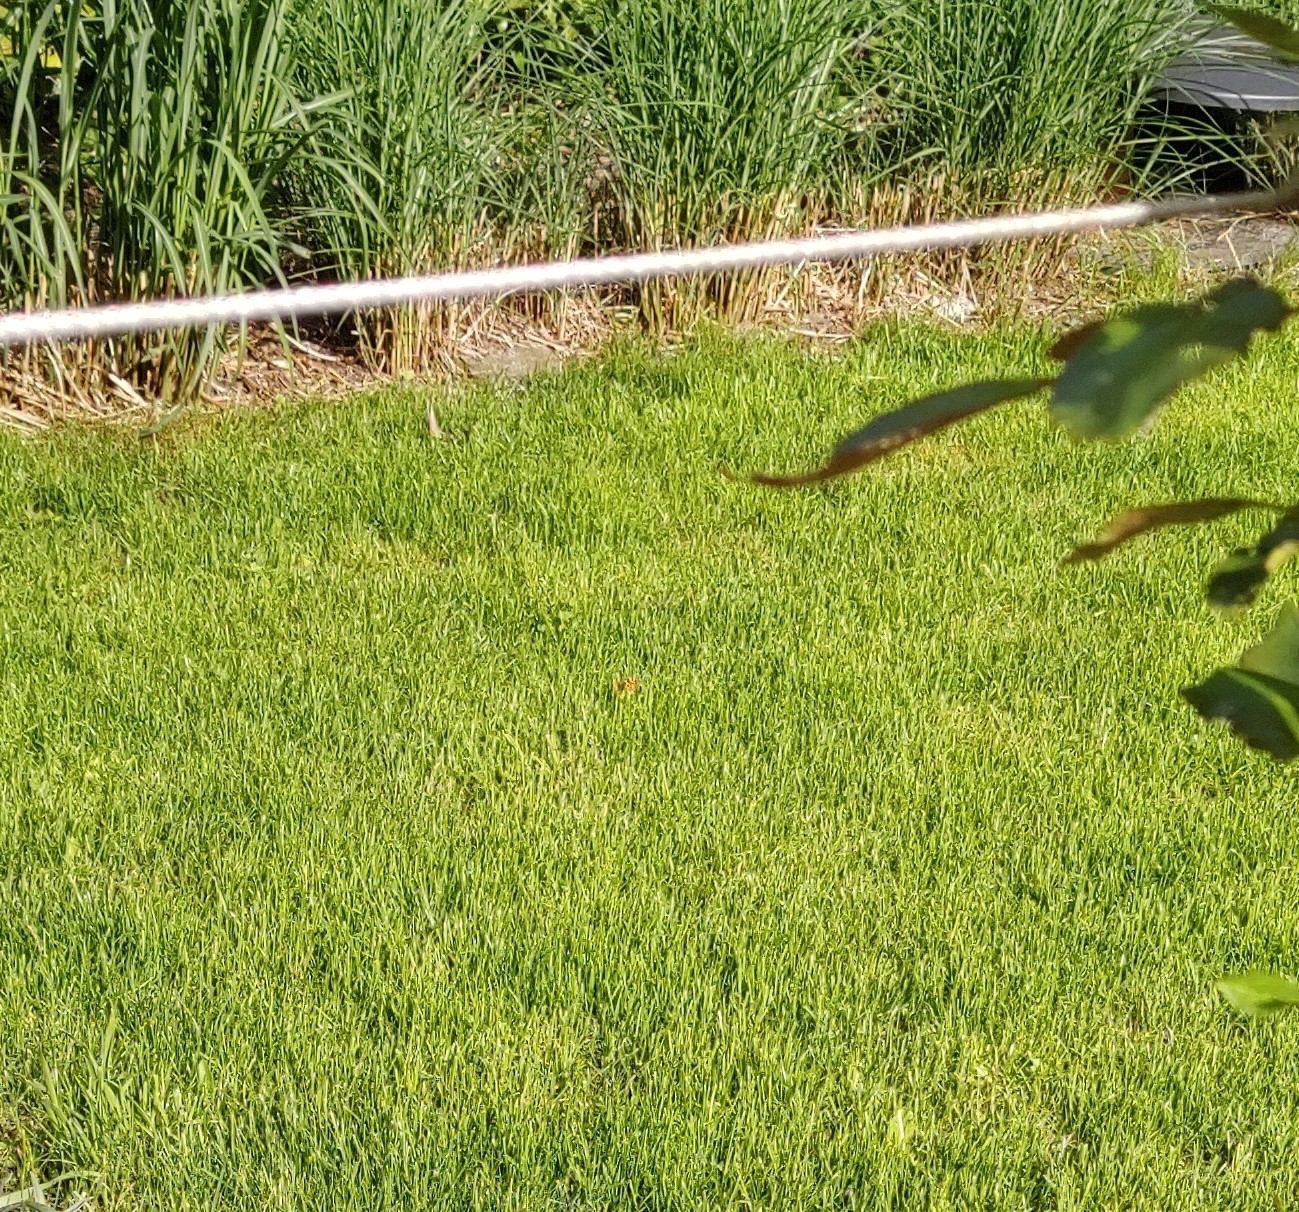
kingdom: Animalia
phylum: Arthropoda
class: Insecta
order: Lepidoptera
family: Nymphalidae
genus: Araschnia
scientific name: Araschnia levana
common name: Map butterfly
